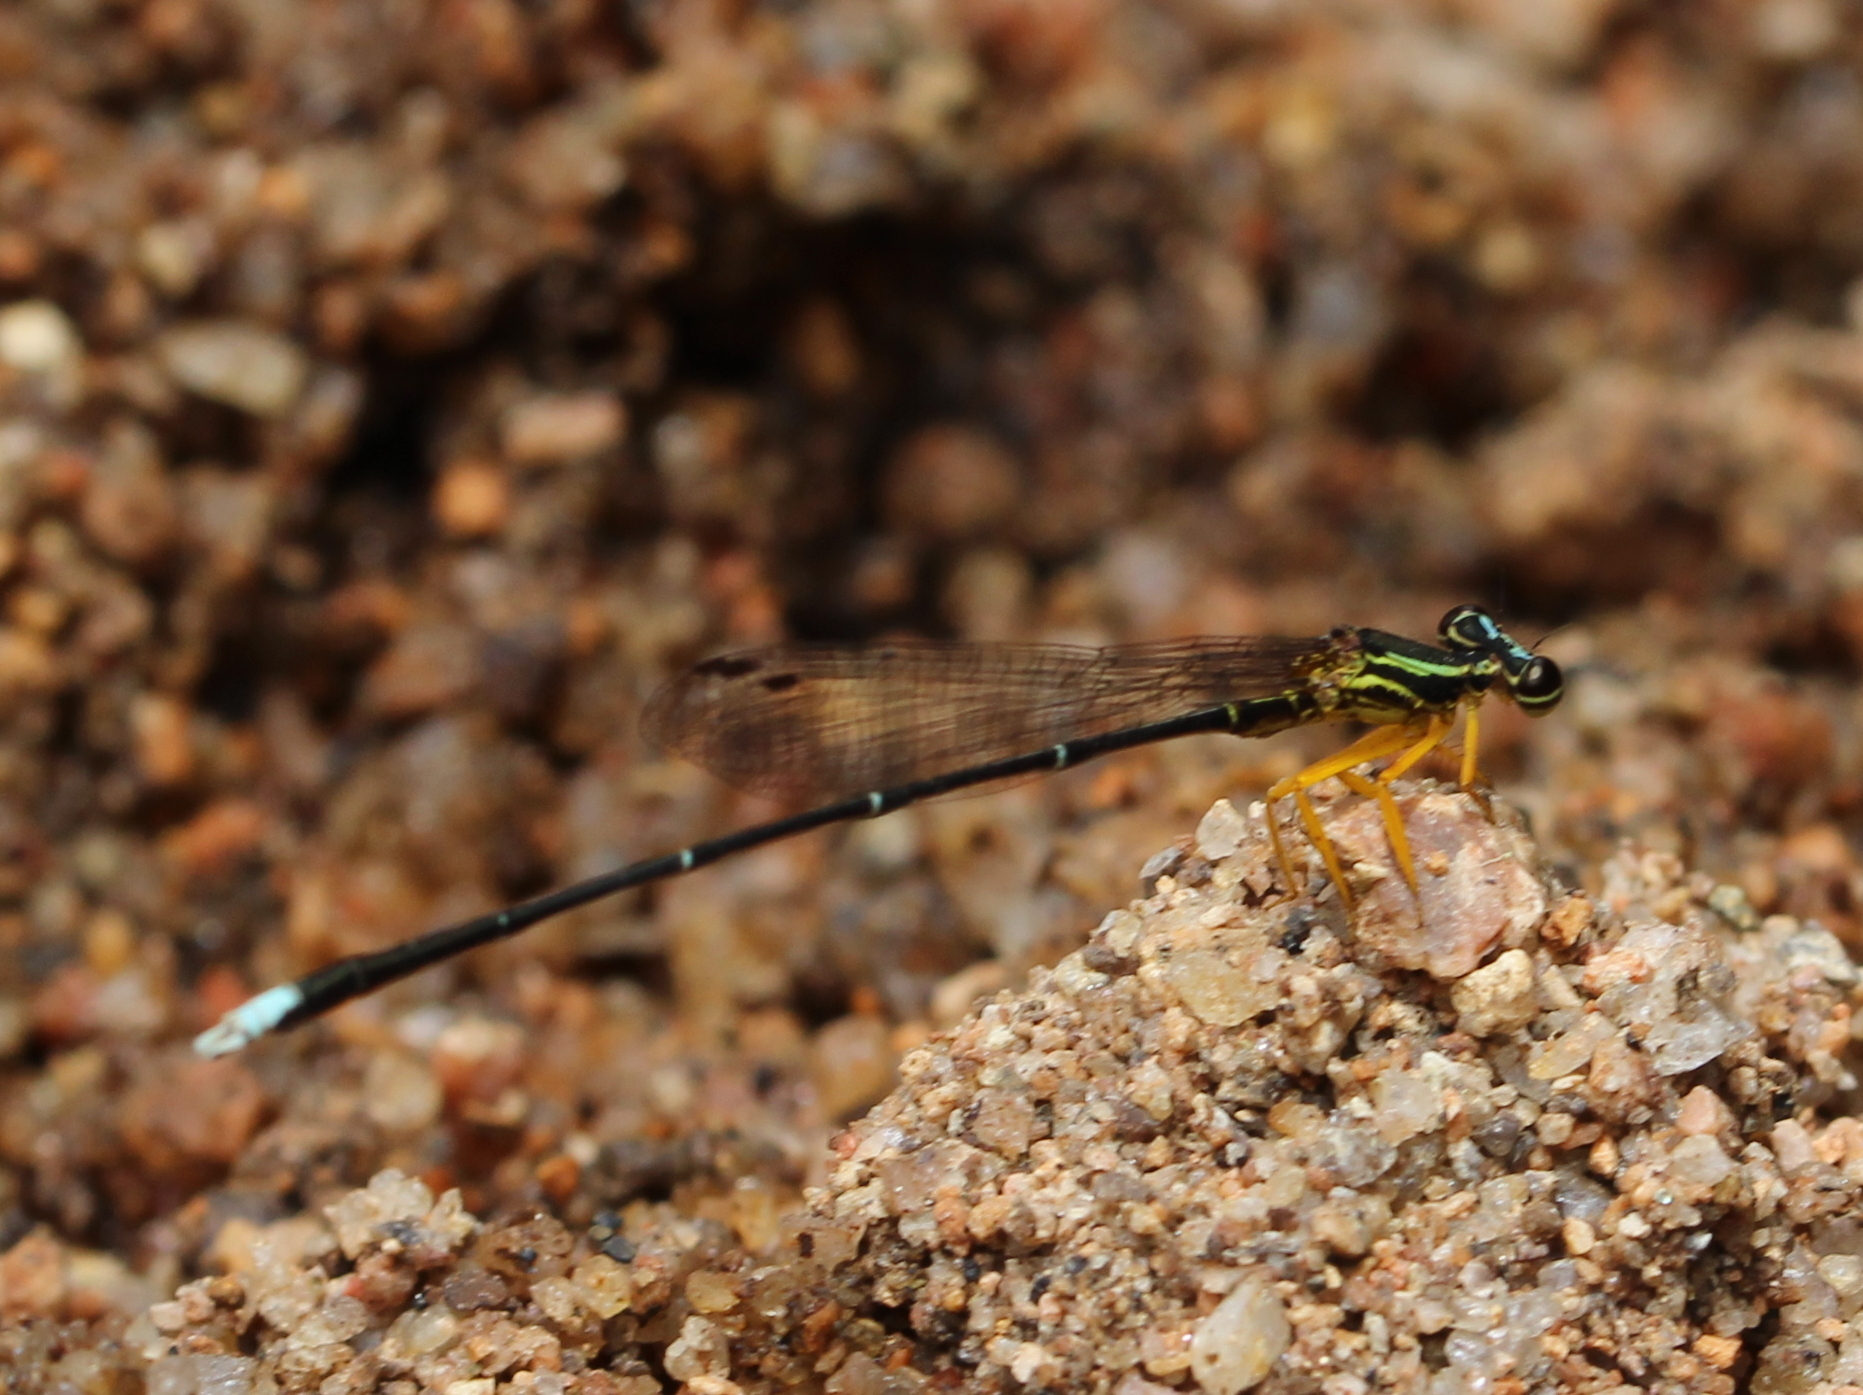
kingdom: Animalia
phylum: Arthropoda
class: Insecta
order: Odonata
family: Platycnemididae
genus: Copera
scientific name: Copera marginipes
